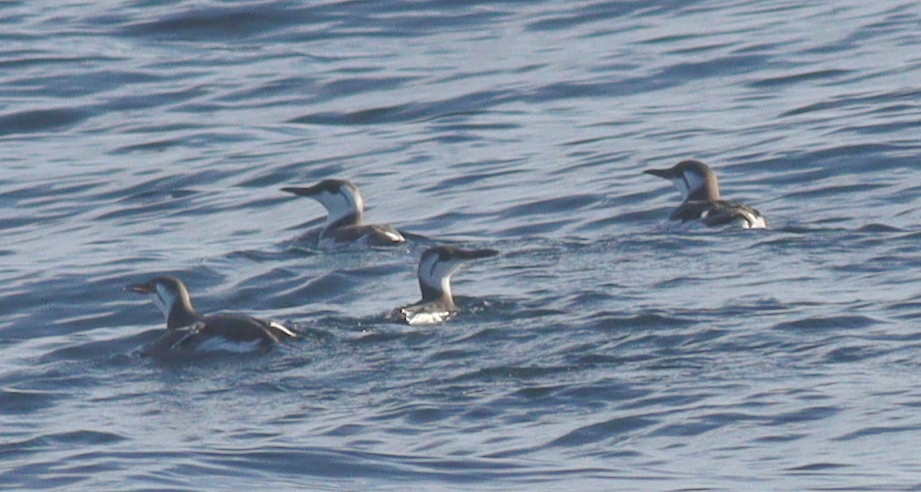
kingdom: Animalia
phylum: Chordata
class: Aves
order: Charadriiformes
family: Alcidae
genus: Uria
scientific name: Uria aalge
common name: Common murre
